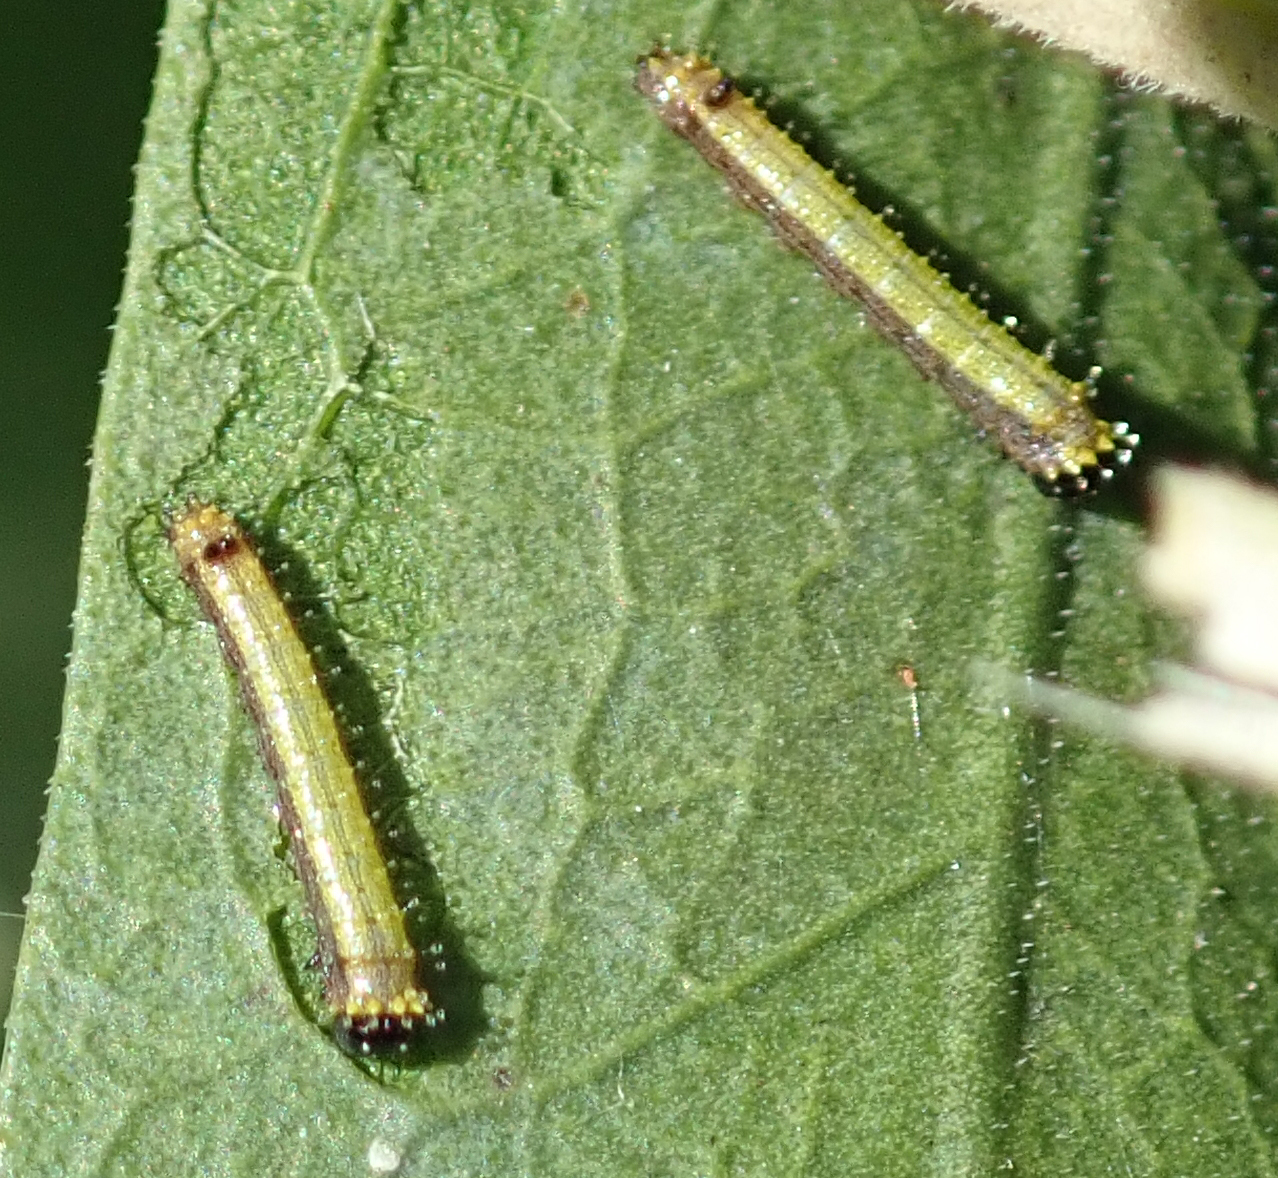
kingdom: Animalia
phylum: Arthropoda
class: Insecta
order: Lepidoptera
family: Pieridae
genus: Pinacopteryx
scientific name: Pinacopteryx eriphia
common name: Zebra white
